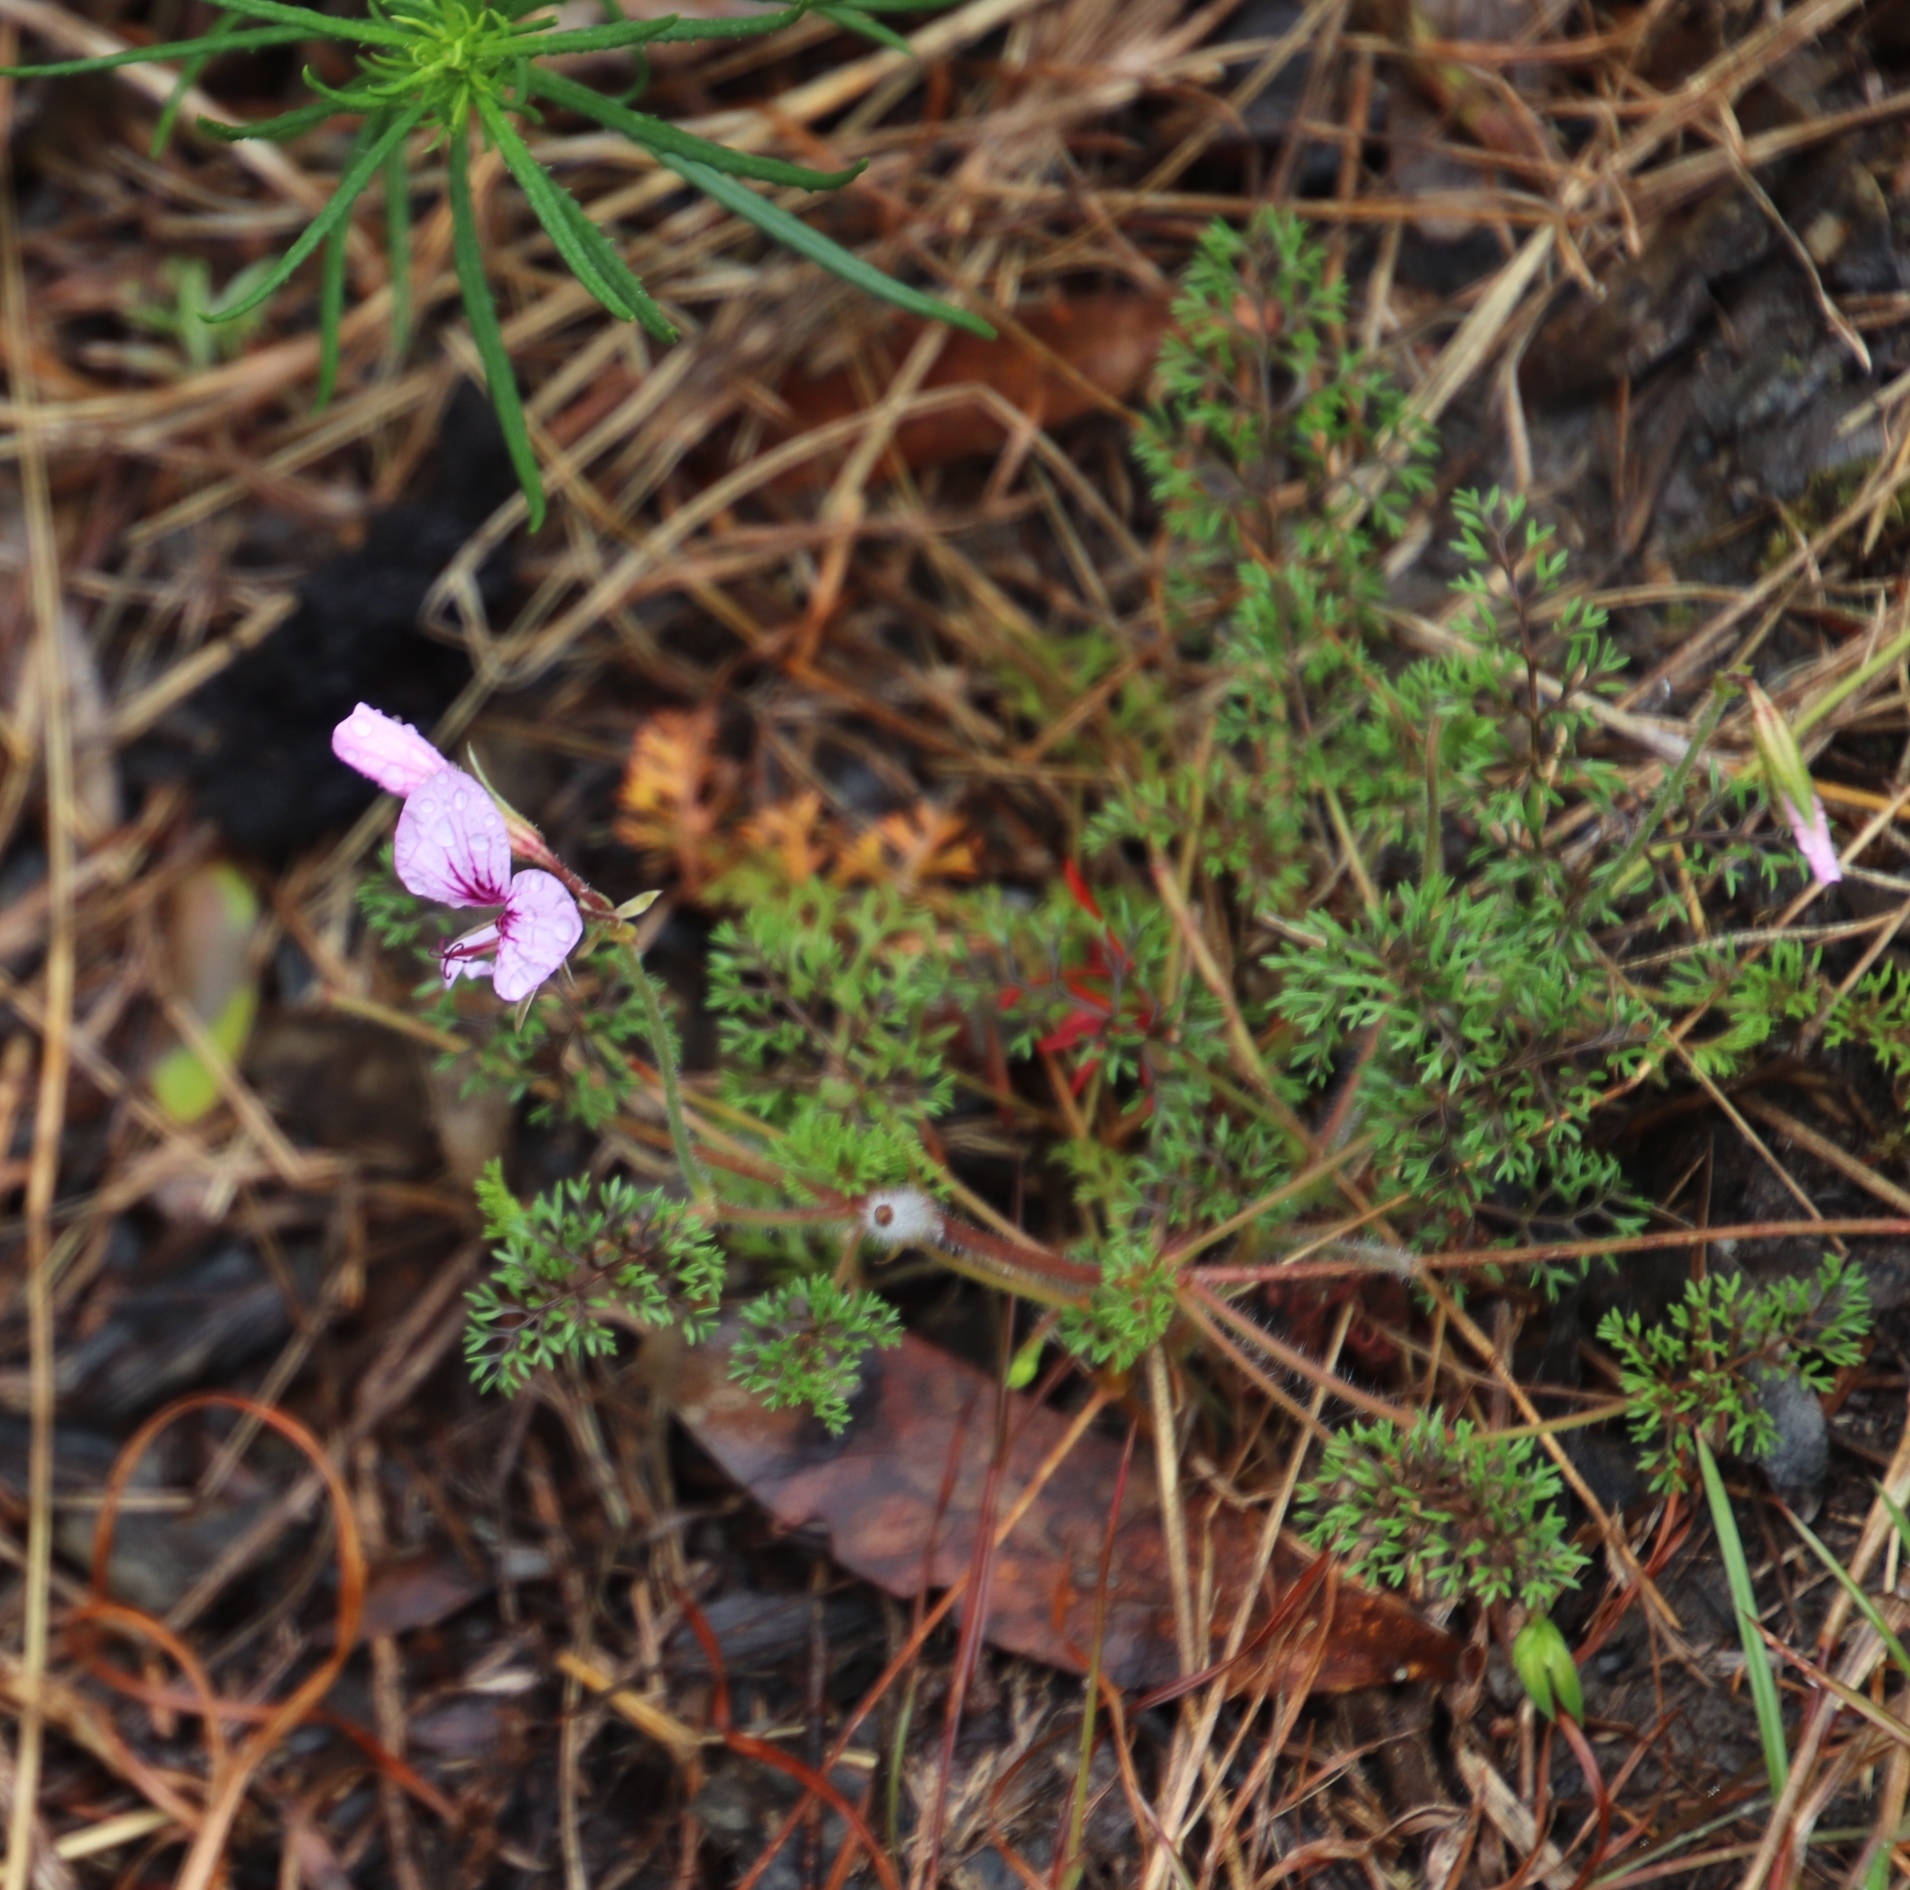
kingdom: Plantae
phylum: Tracheophyta
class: Magnoliopsida
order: Geraniales
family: Geraniaceae
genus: Pelargonium
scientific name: Pelargonium myrrhifolium
